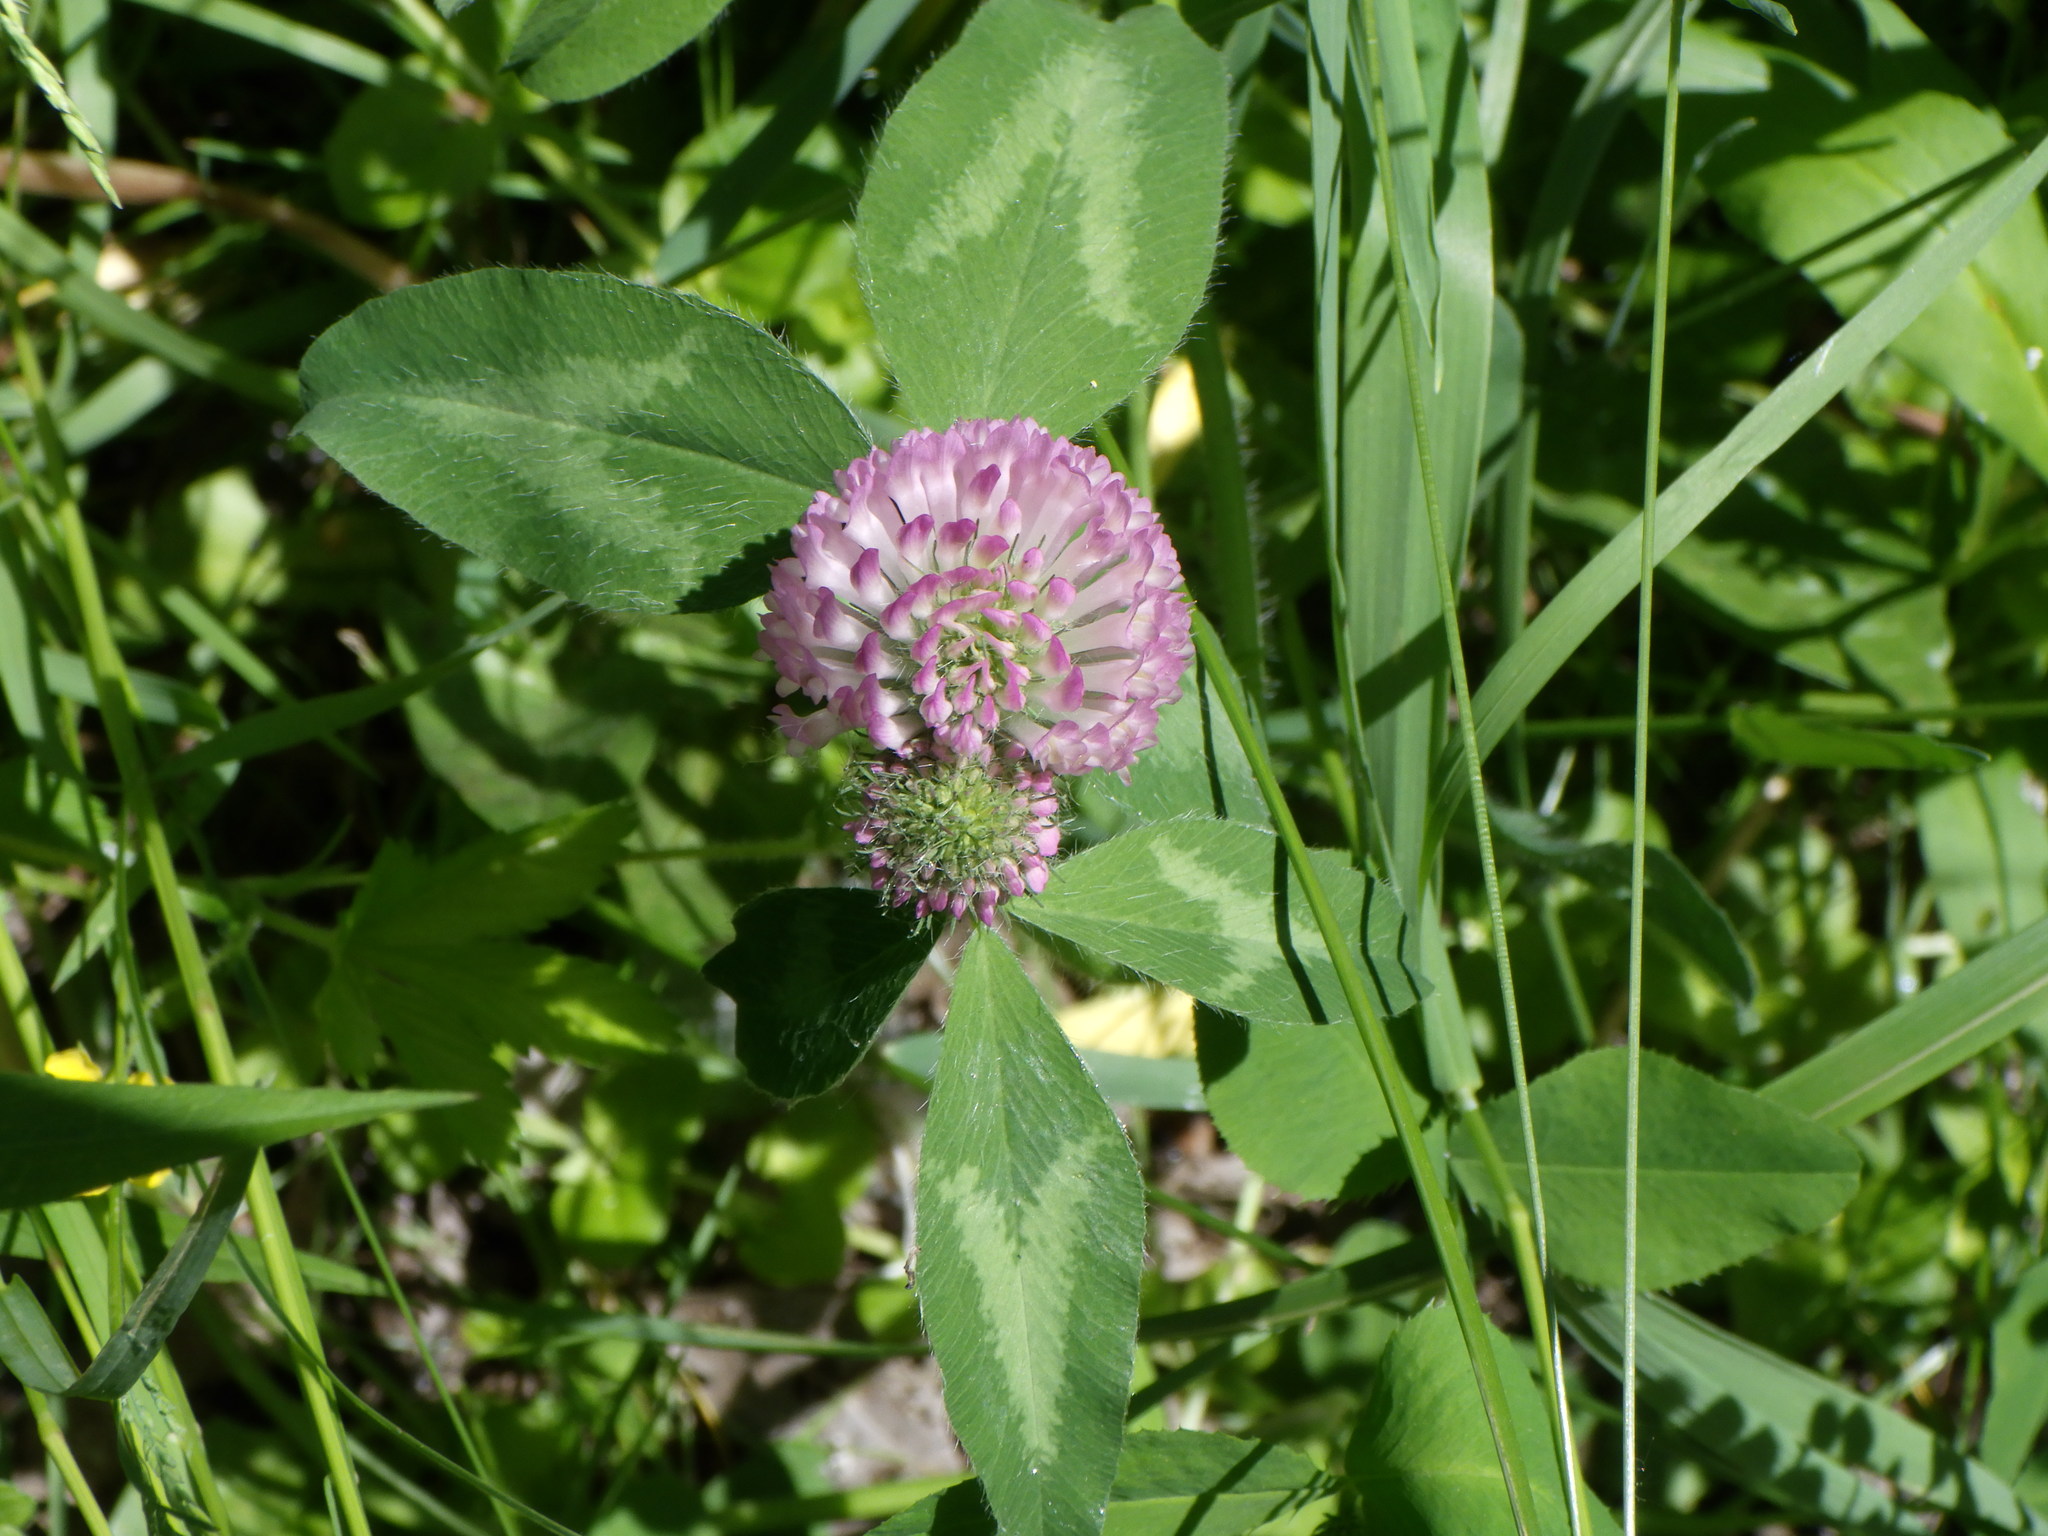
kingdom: Plantae
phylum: Tracheophyta
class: Magnoliopsida
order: Fabales
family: Fabaceae
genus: Trifolium
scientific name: Trifolium pratense
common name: Red clover
